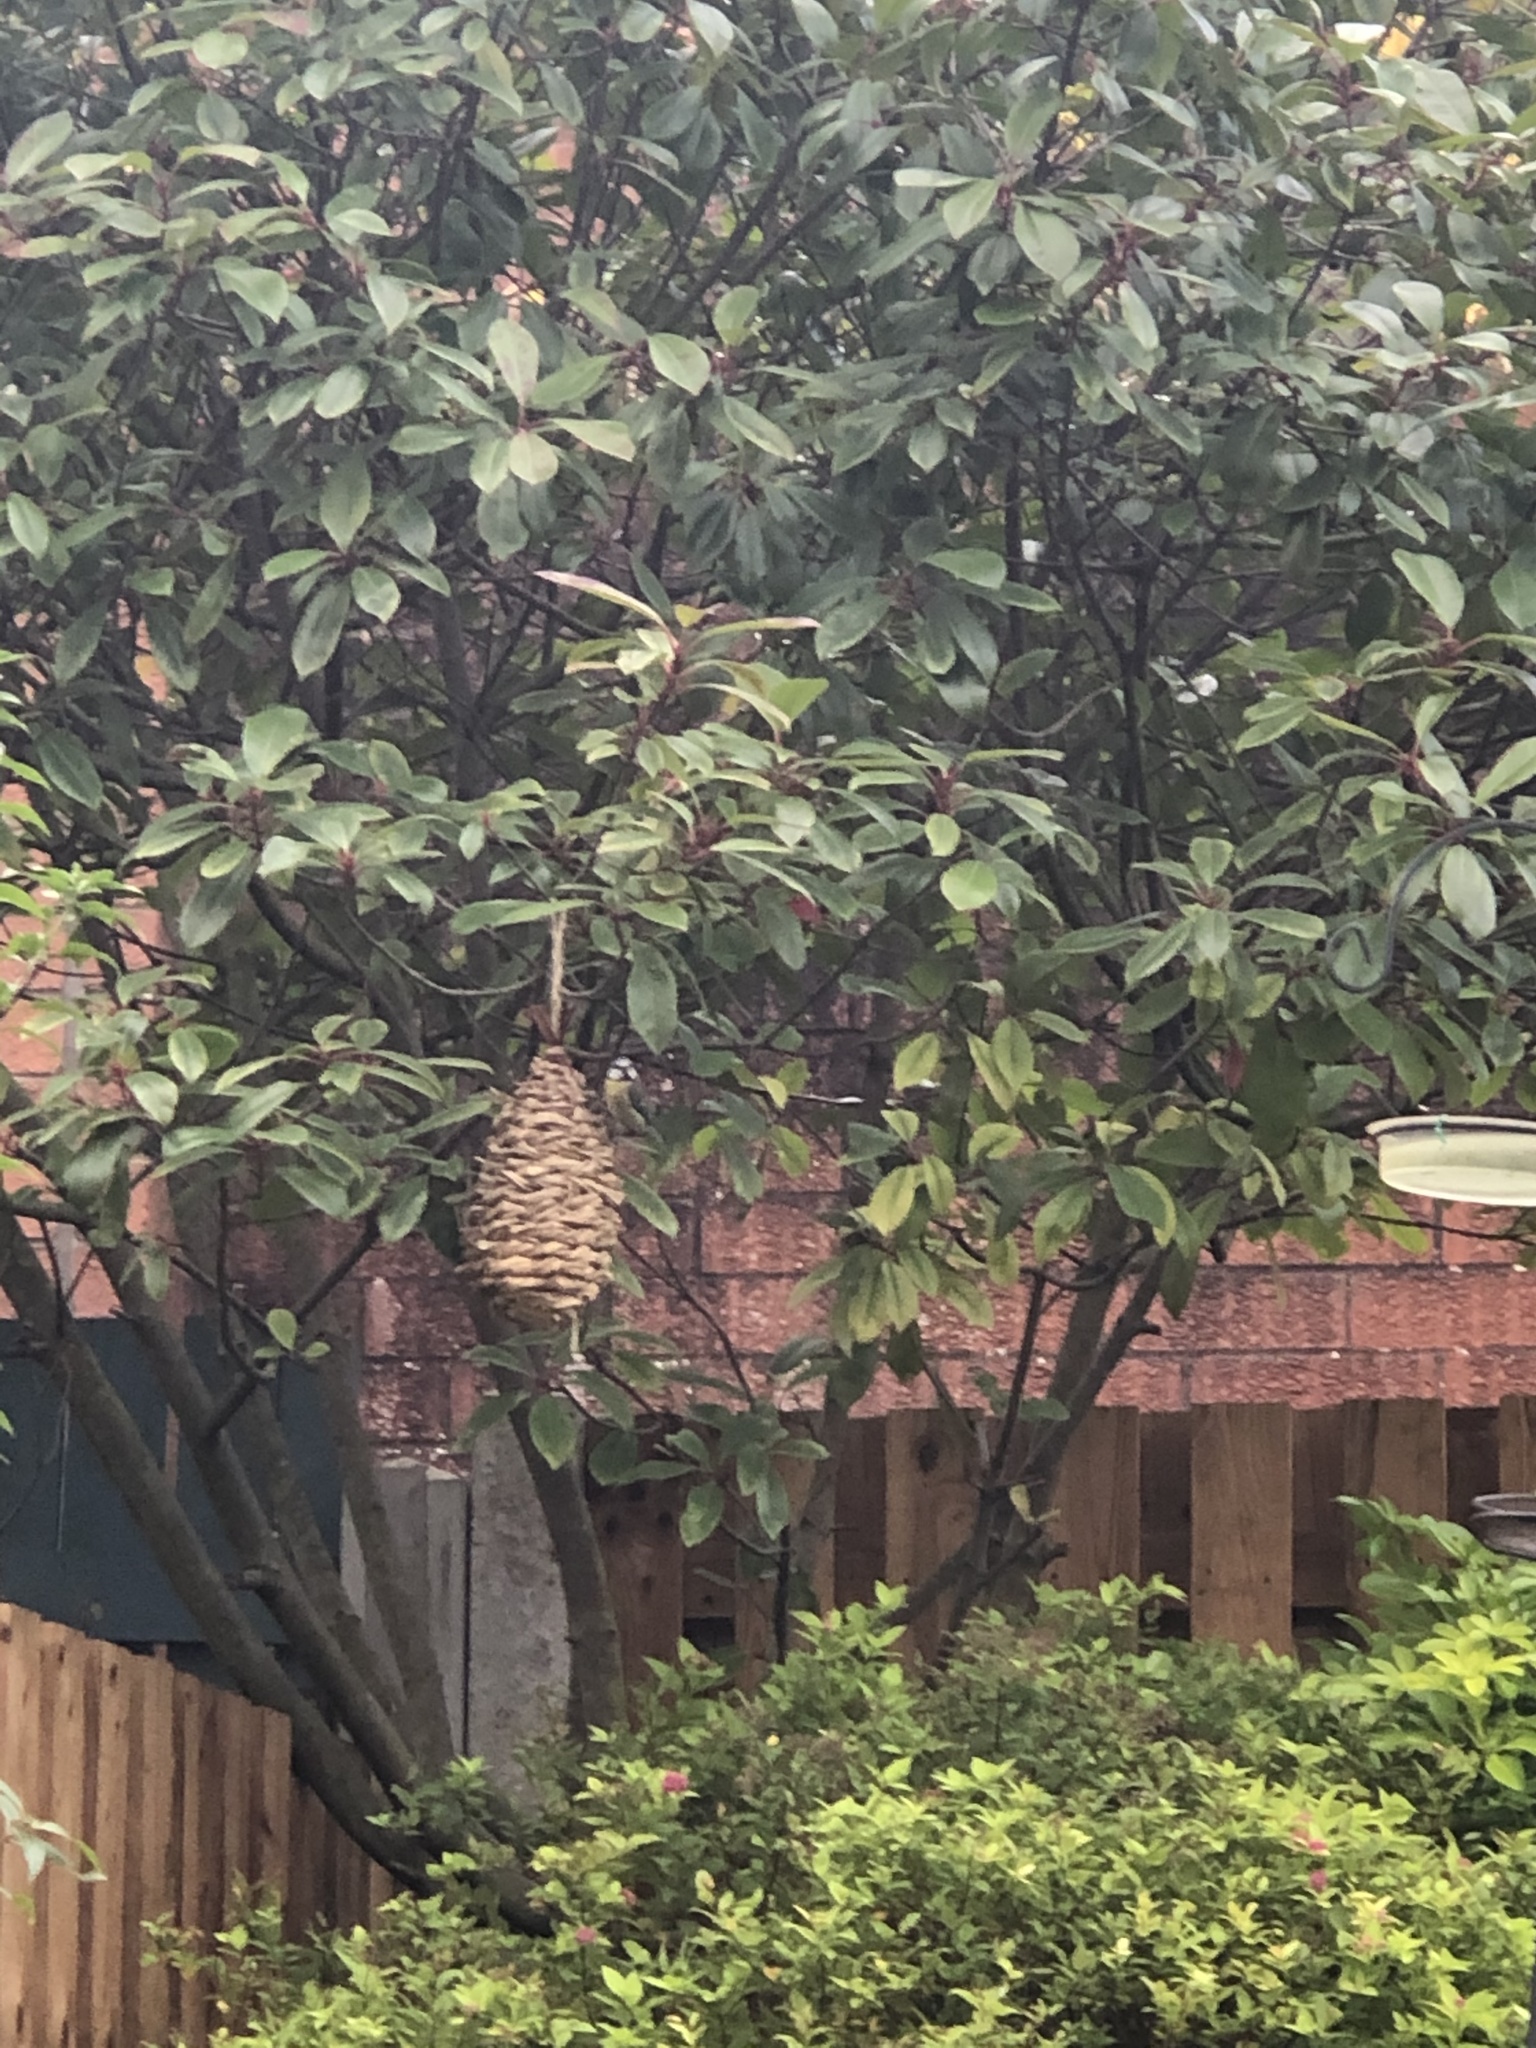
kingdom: Animalia
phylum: Chordata
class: Aves
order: Passeriformes
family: Paridae
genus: Cyanistes
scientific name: Cyanistes caeruleus
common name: Eurasian blue tit
